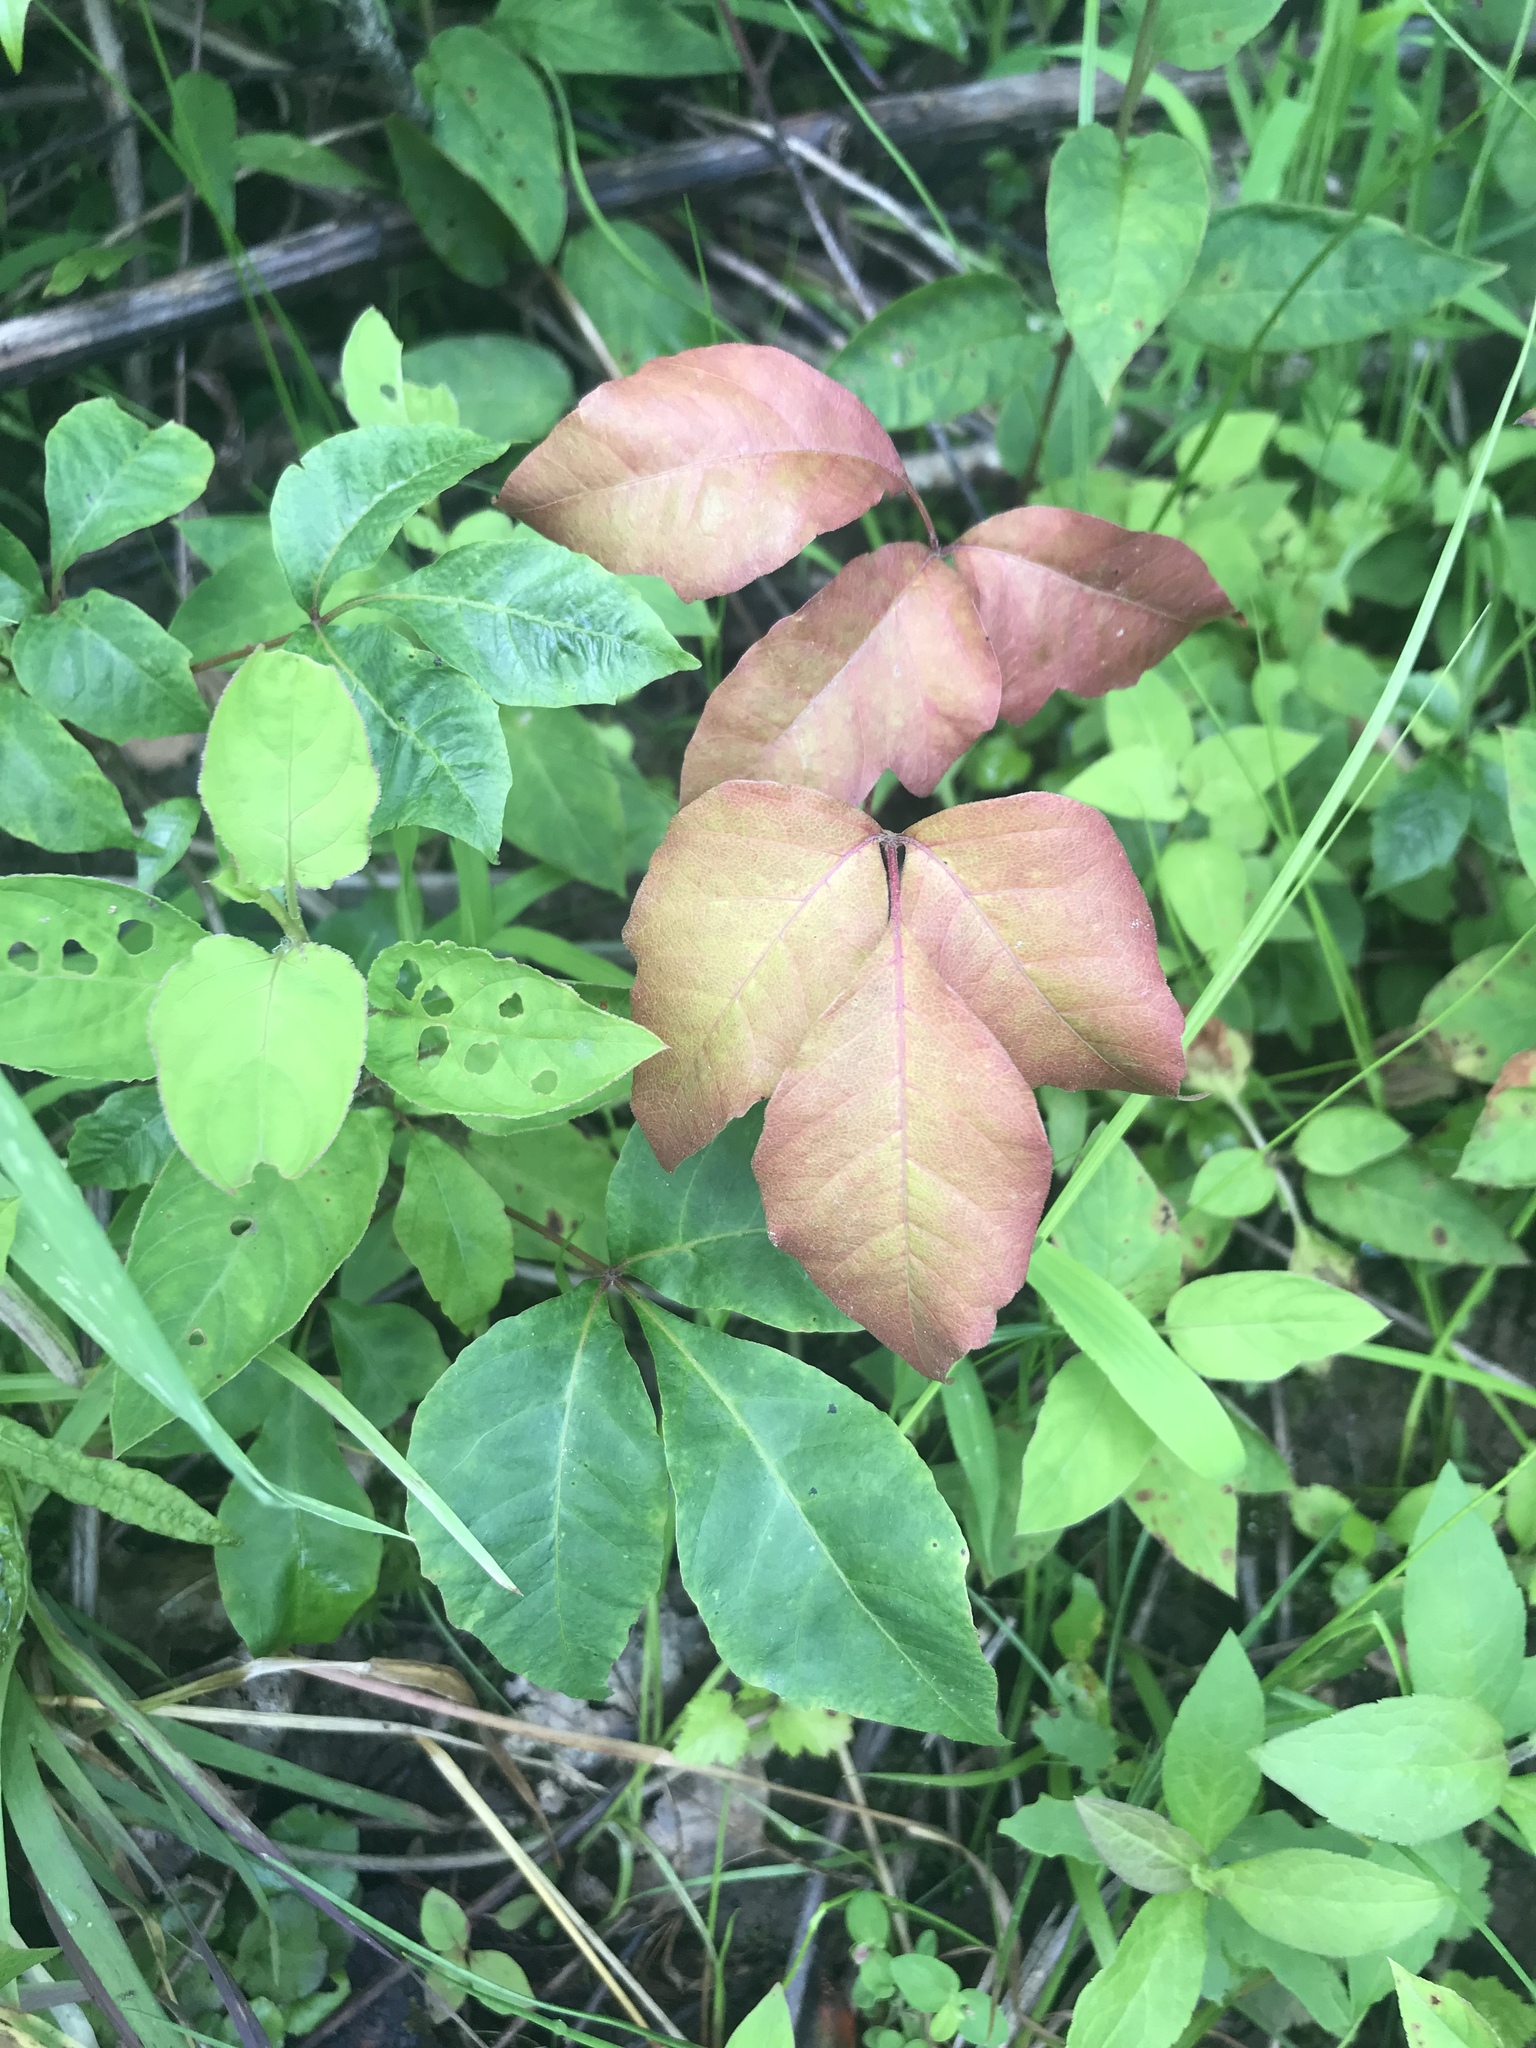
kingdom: Plantae
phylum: Tracheophyta
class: Magnoliopsida
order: Sapindales
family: Anacardiaceae
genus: Toxicodendron
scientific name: Toxicodendron radicans
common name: Poison ivy
